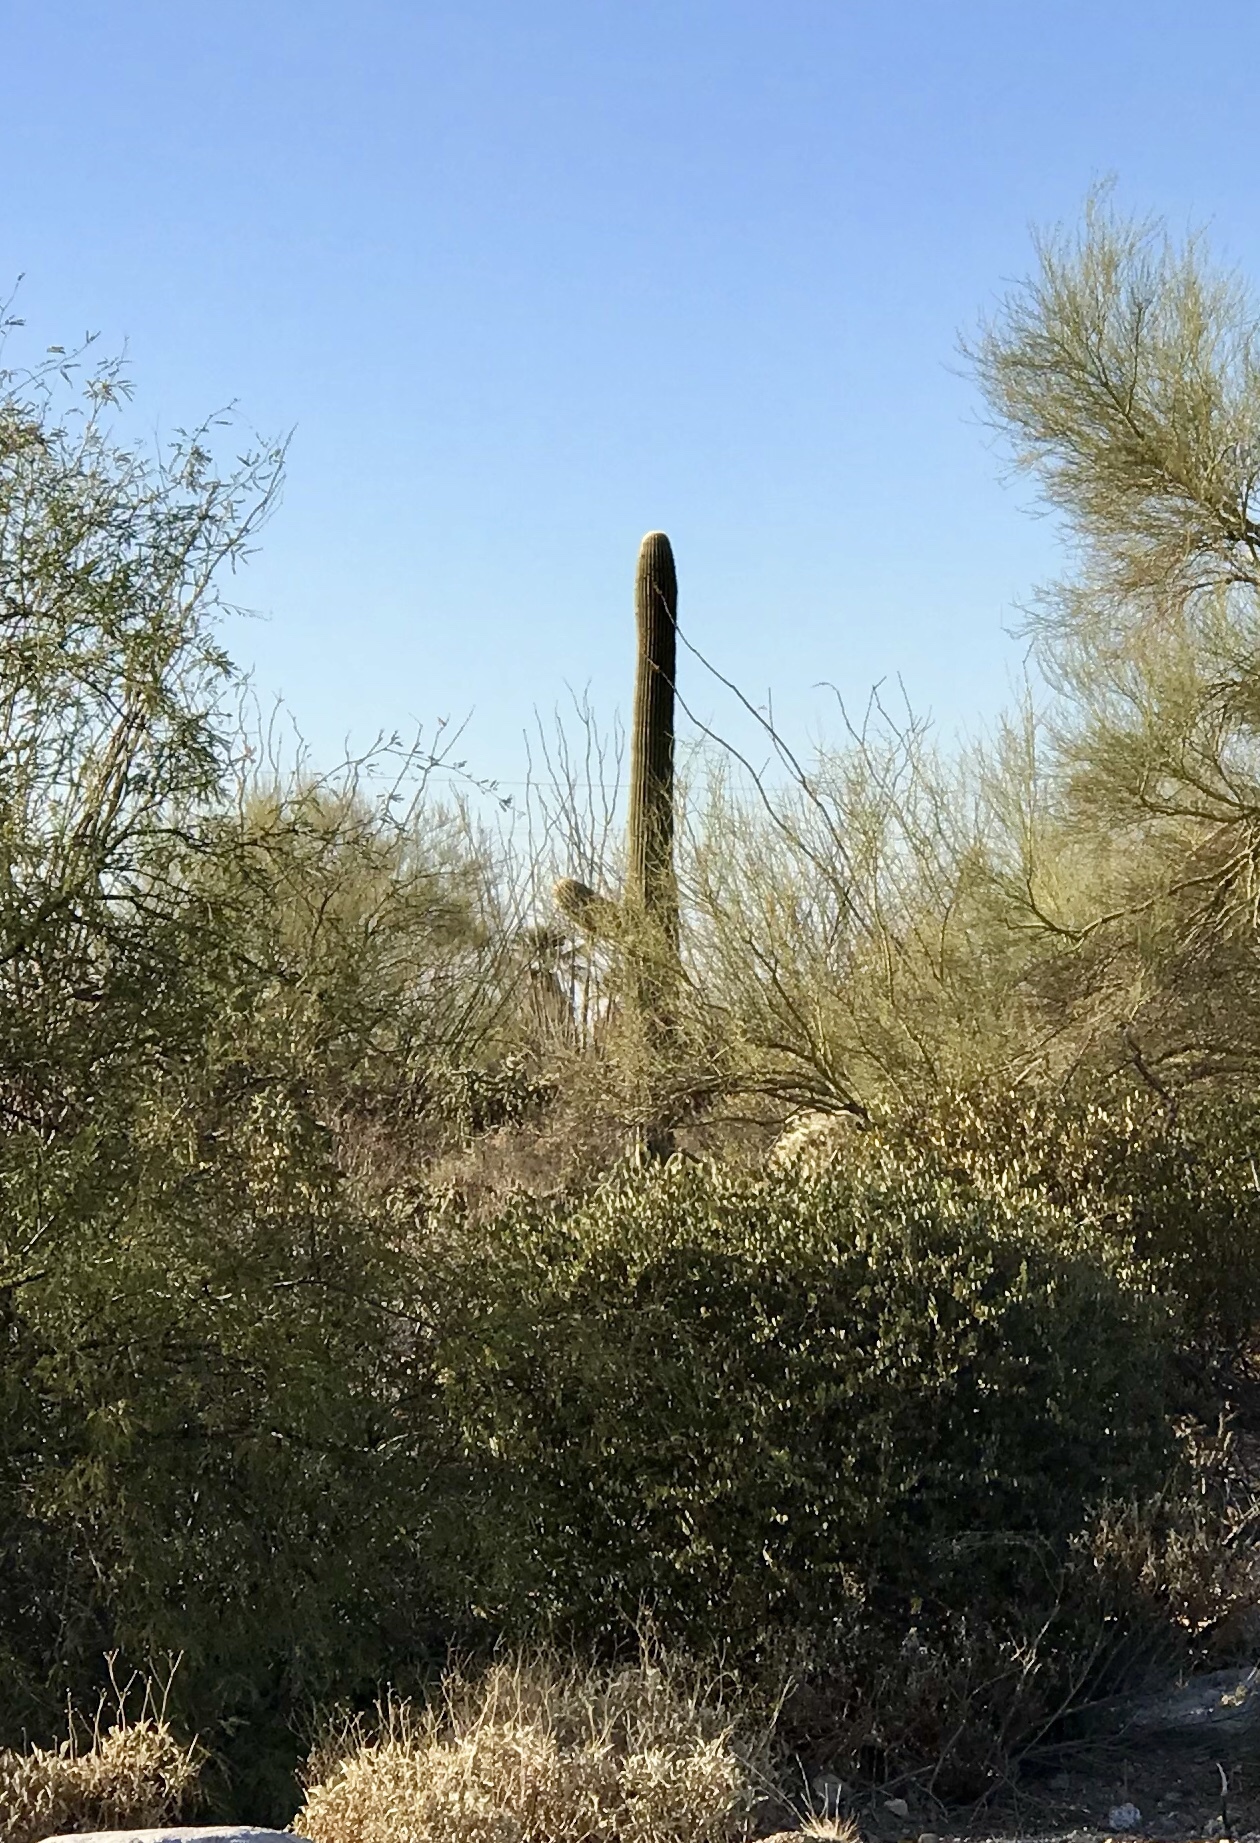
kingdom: Plantae
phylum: Tracheophyta
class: Magnoliopsida
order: Caryophyllales
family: Cactaceae
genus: Carnegiea
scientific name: Carnegiea gigantea
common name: Saguaro
